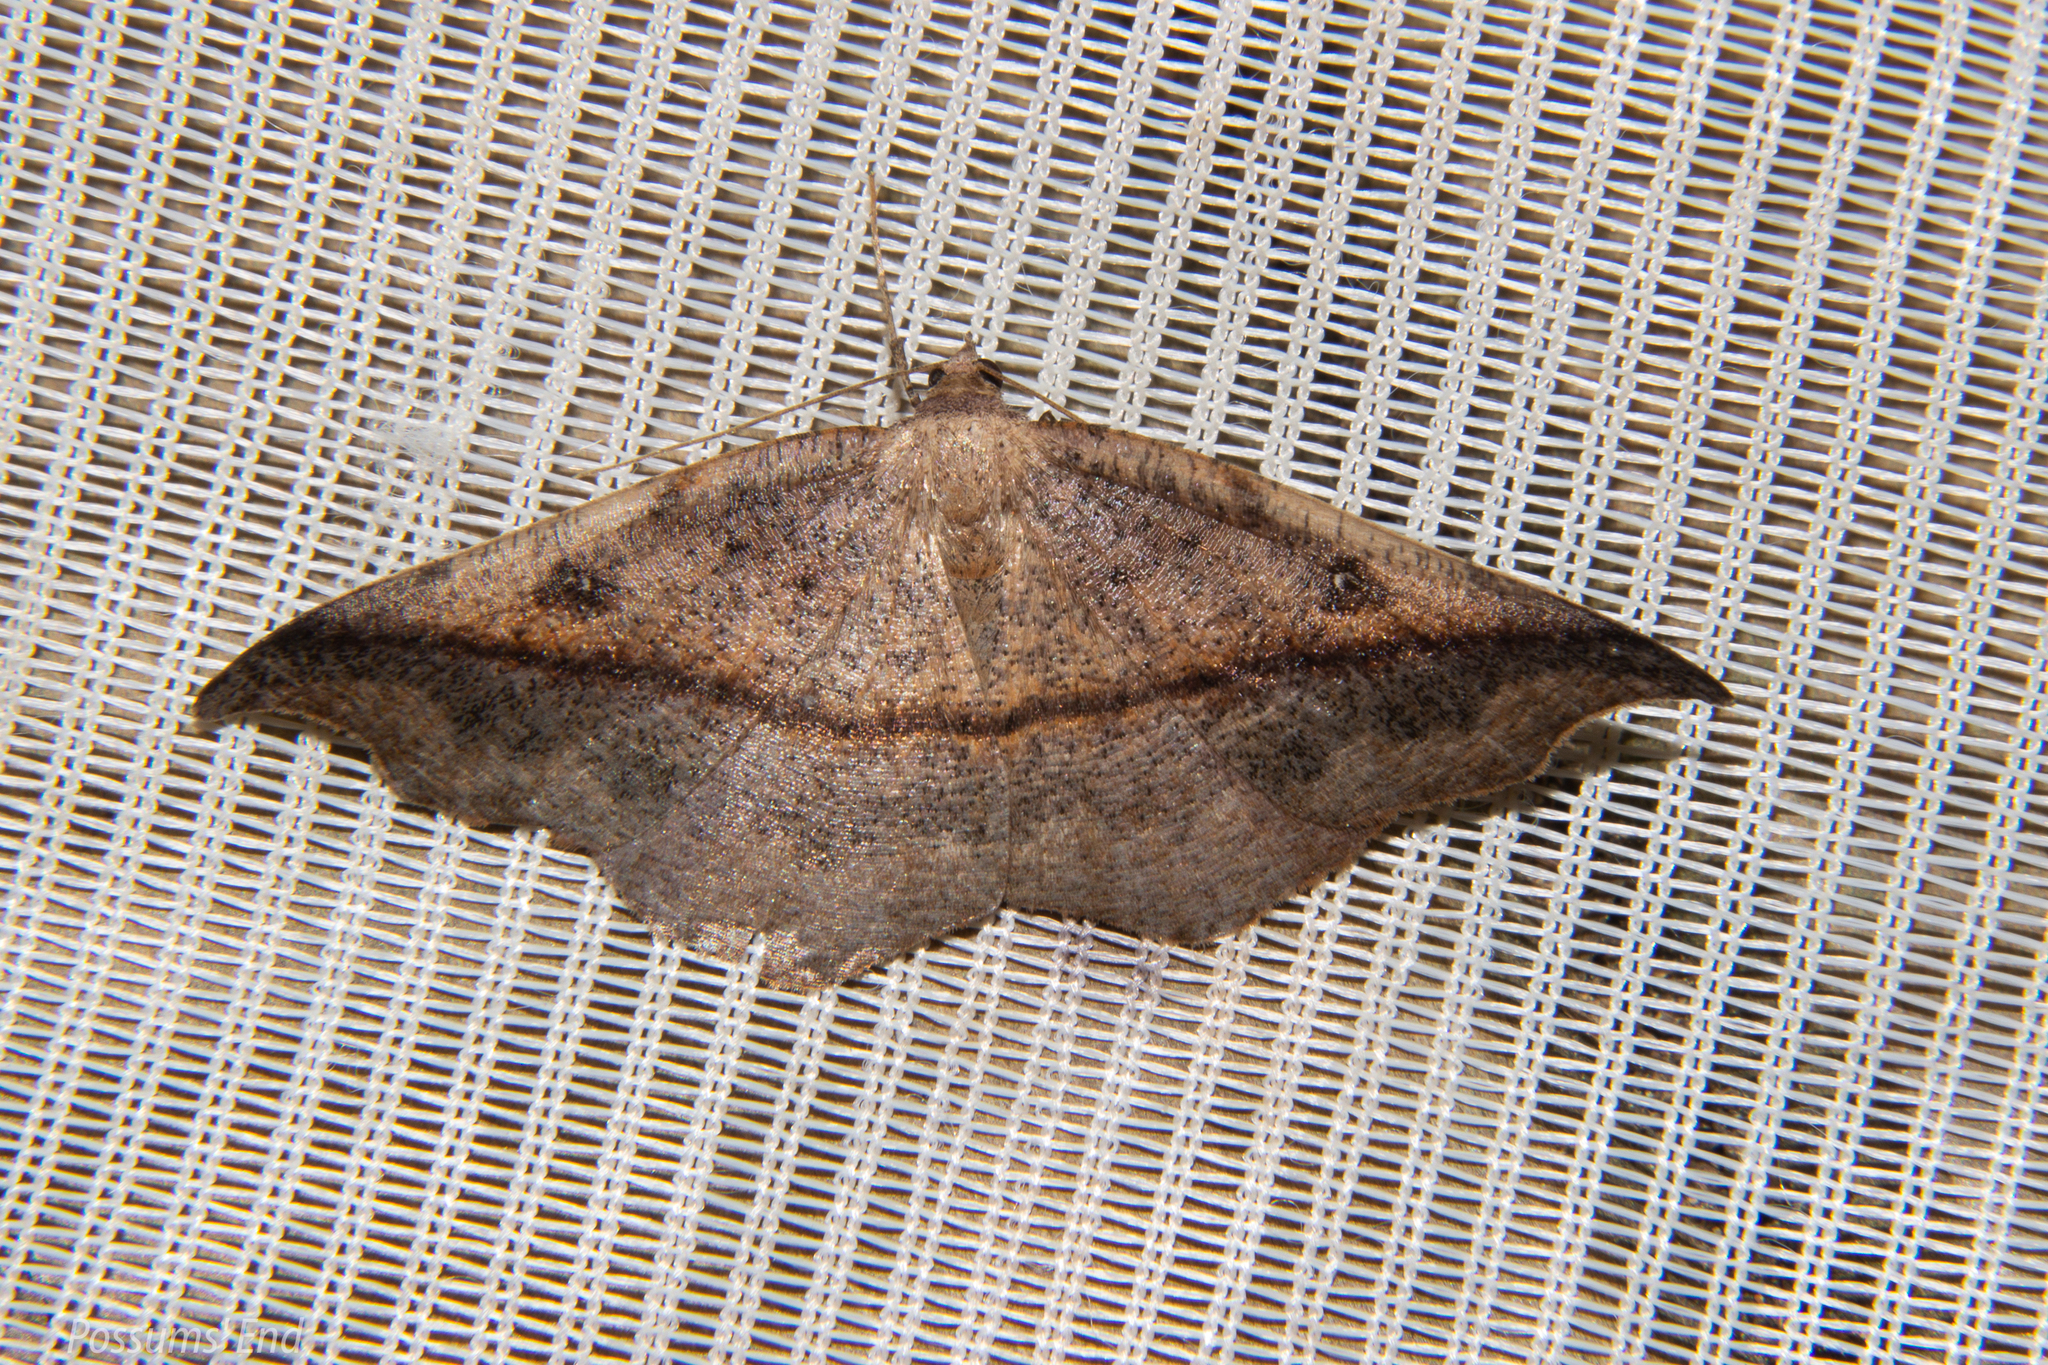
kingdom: Animalia
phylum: Arthropoda
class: Insecta
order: Lepidoptera
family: Geometridae
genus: Sarisa
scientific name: Sarisa muriferata
